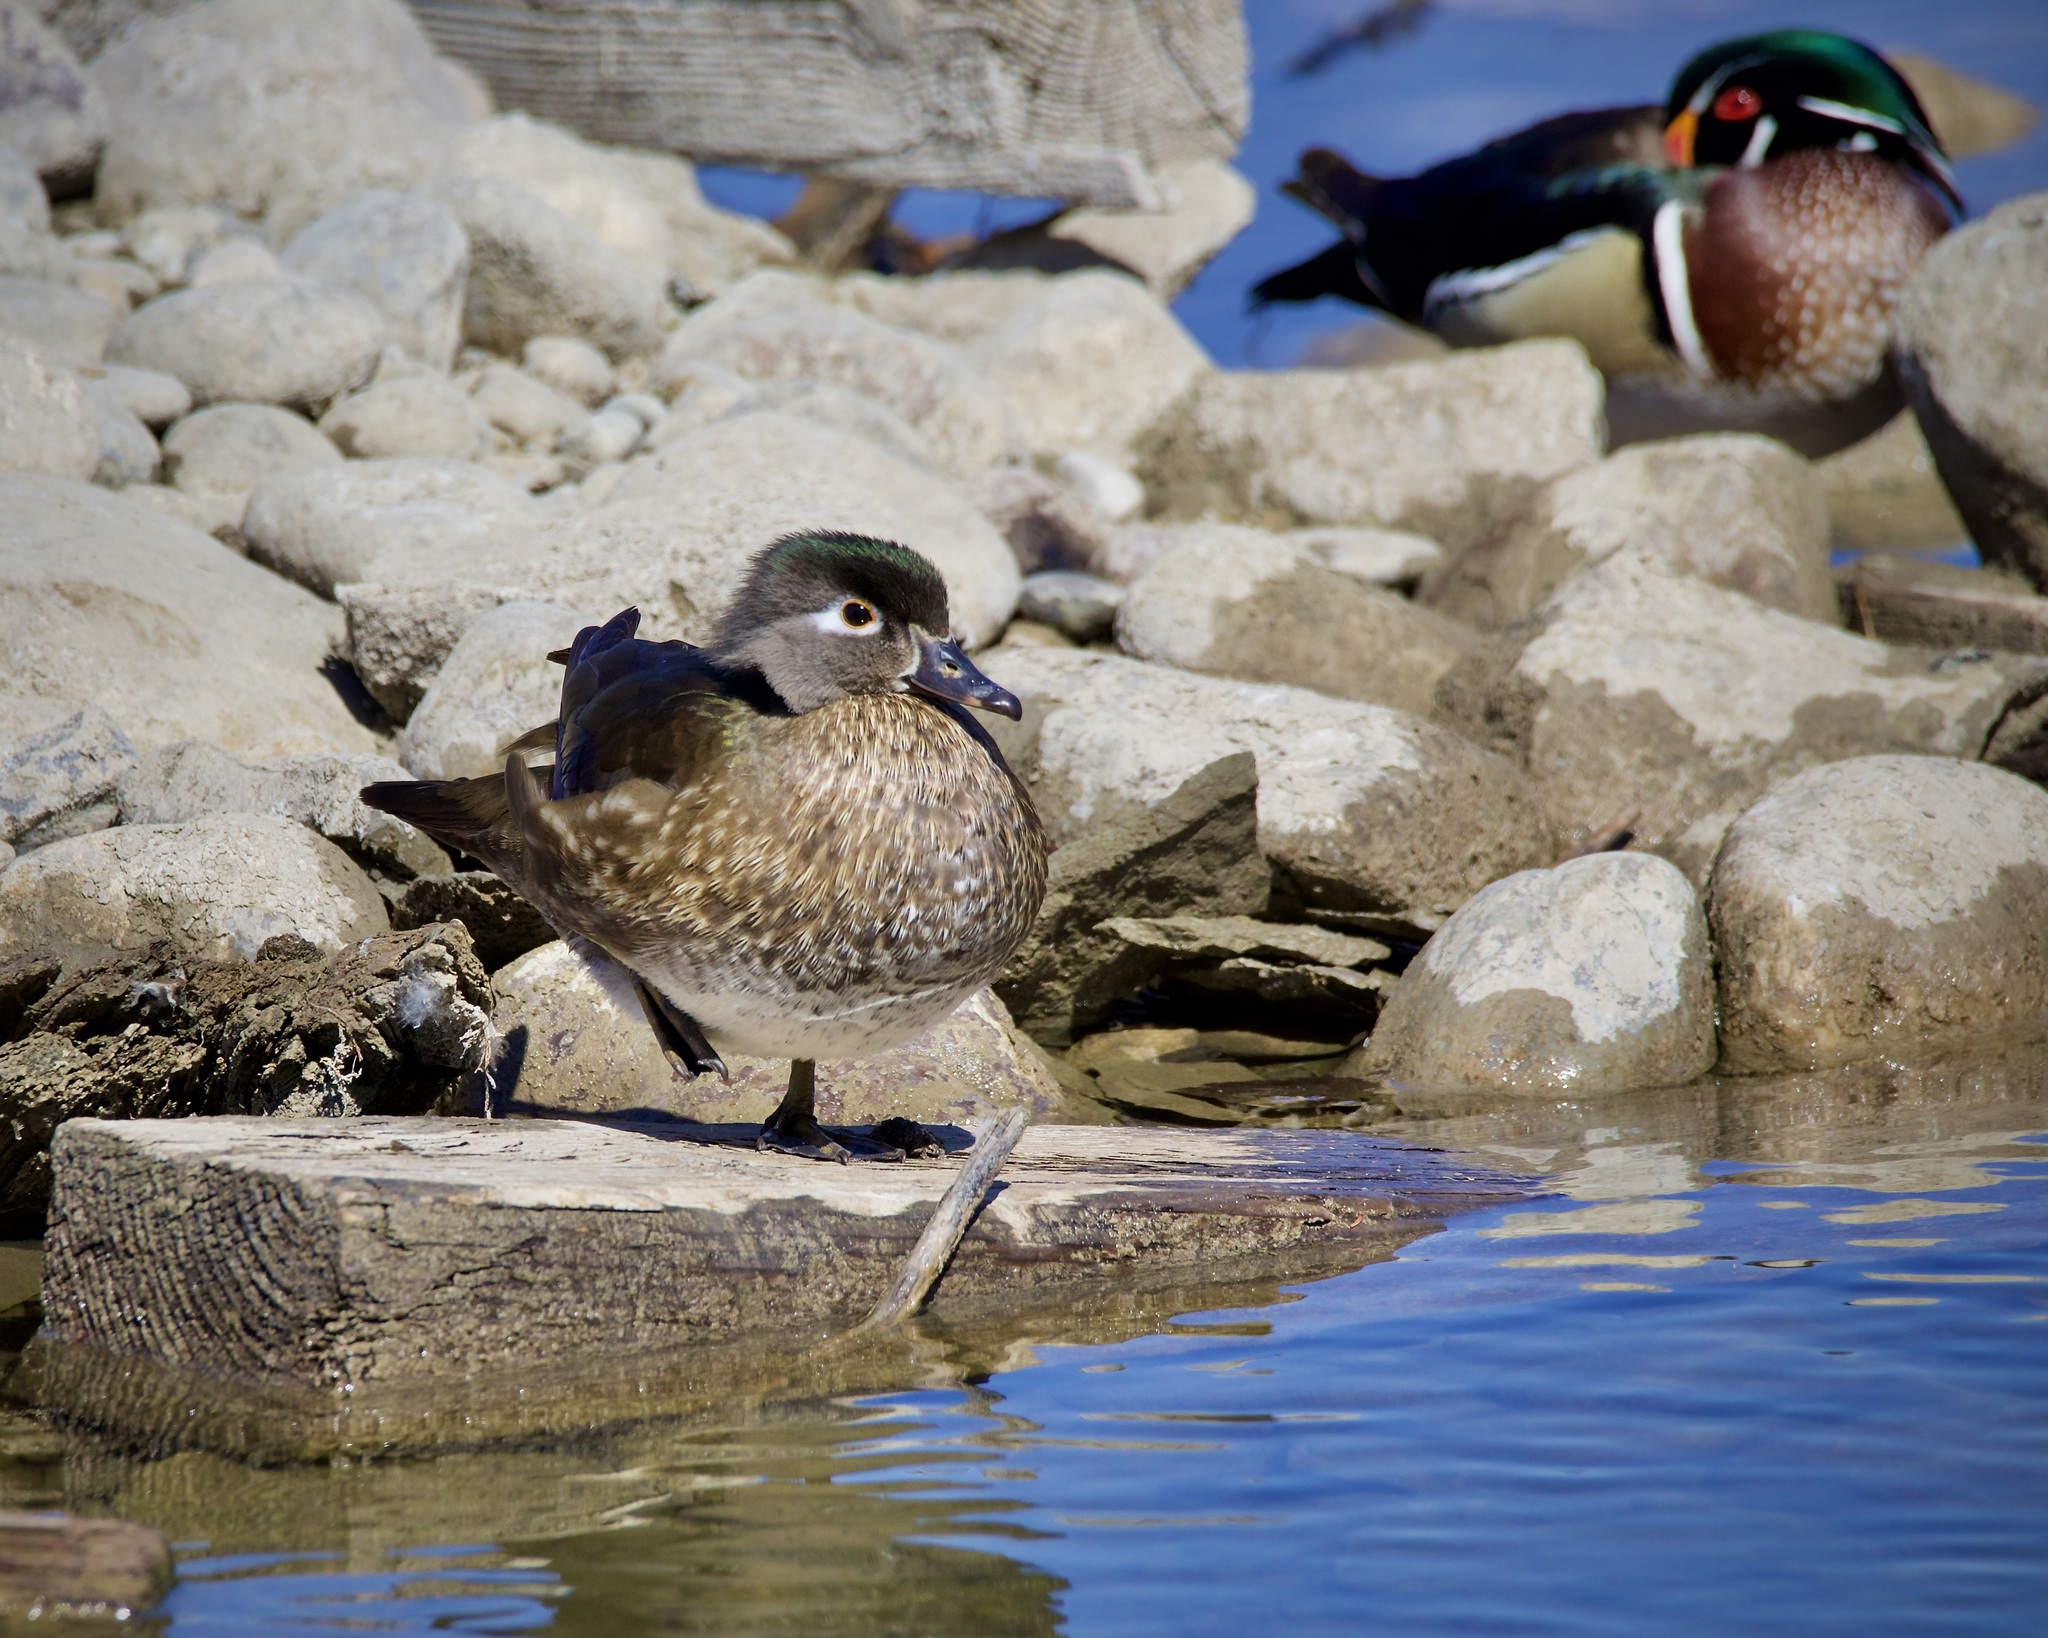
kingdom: Animalia
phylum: Chordata
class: Aves
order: Anseriformes
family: Anatidae
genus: Aix
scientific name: Aix sponsa
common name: Wood duck
